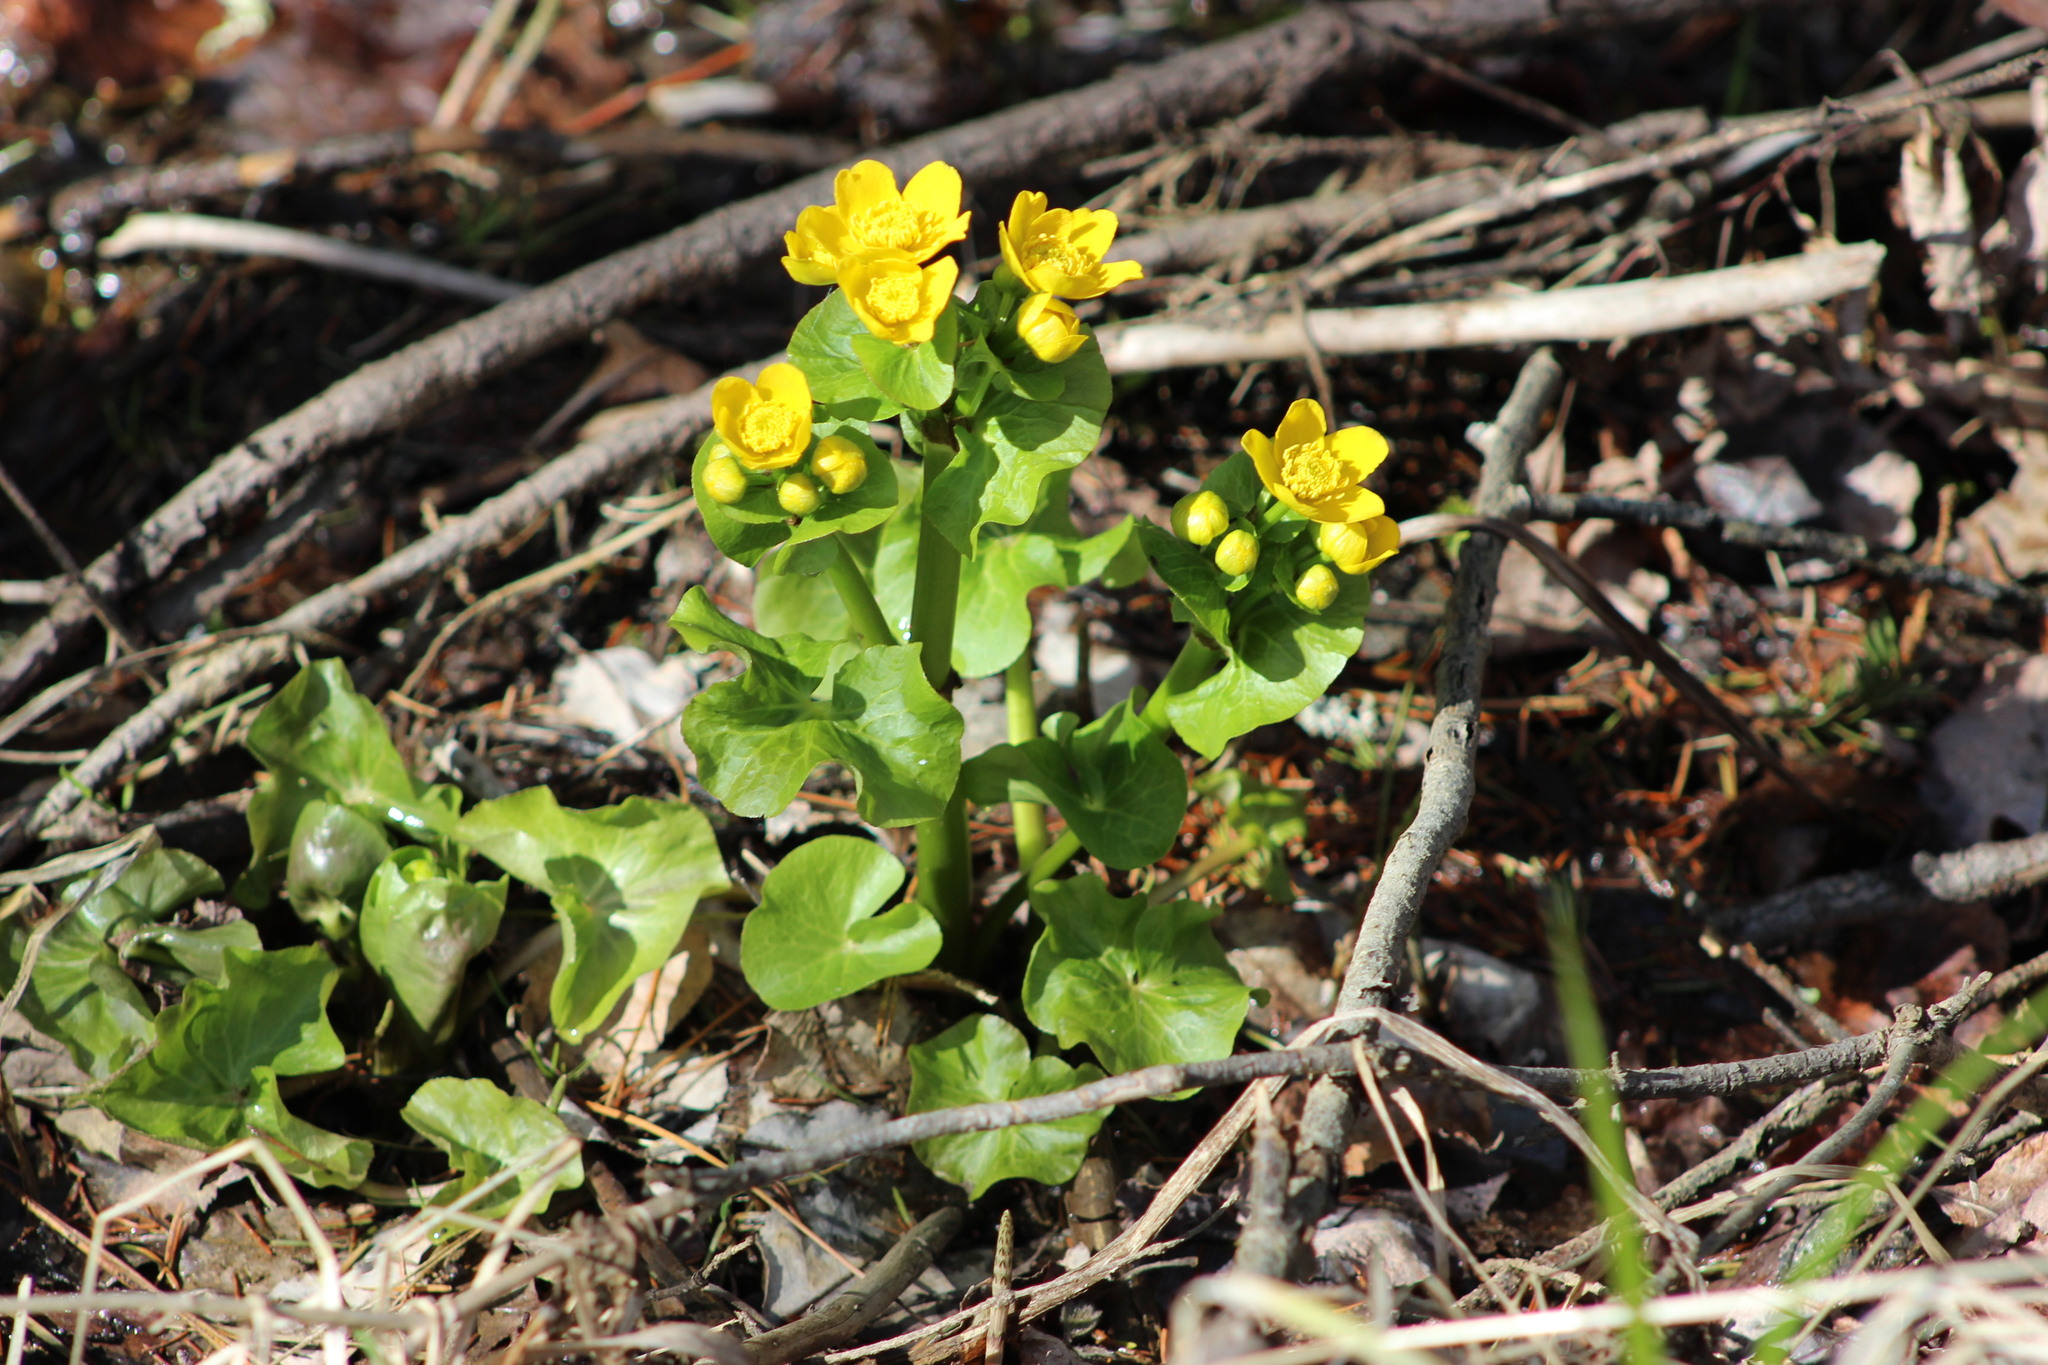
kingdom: Plantae
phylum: Tracheophyta
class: Magnoliopsida
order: Ranunculales
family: Ranunculaceae
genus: Caltha
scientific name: Caltha palustris
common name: Marsh marigold
